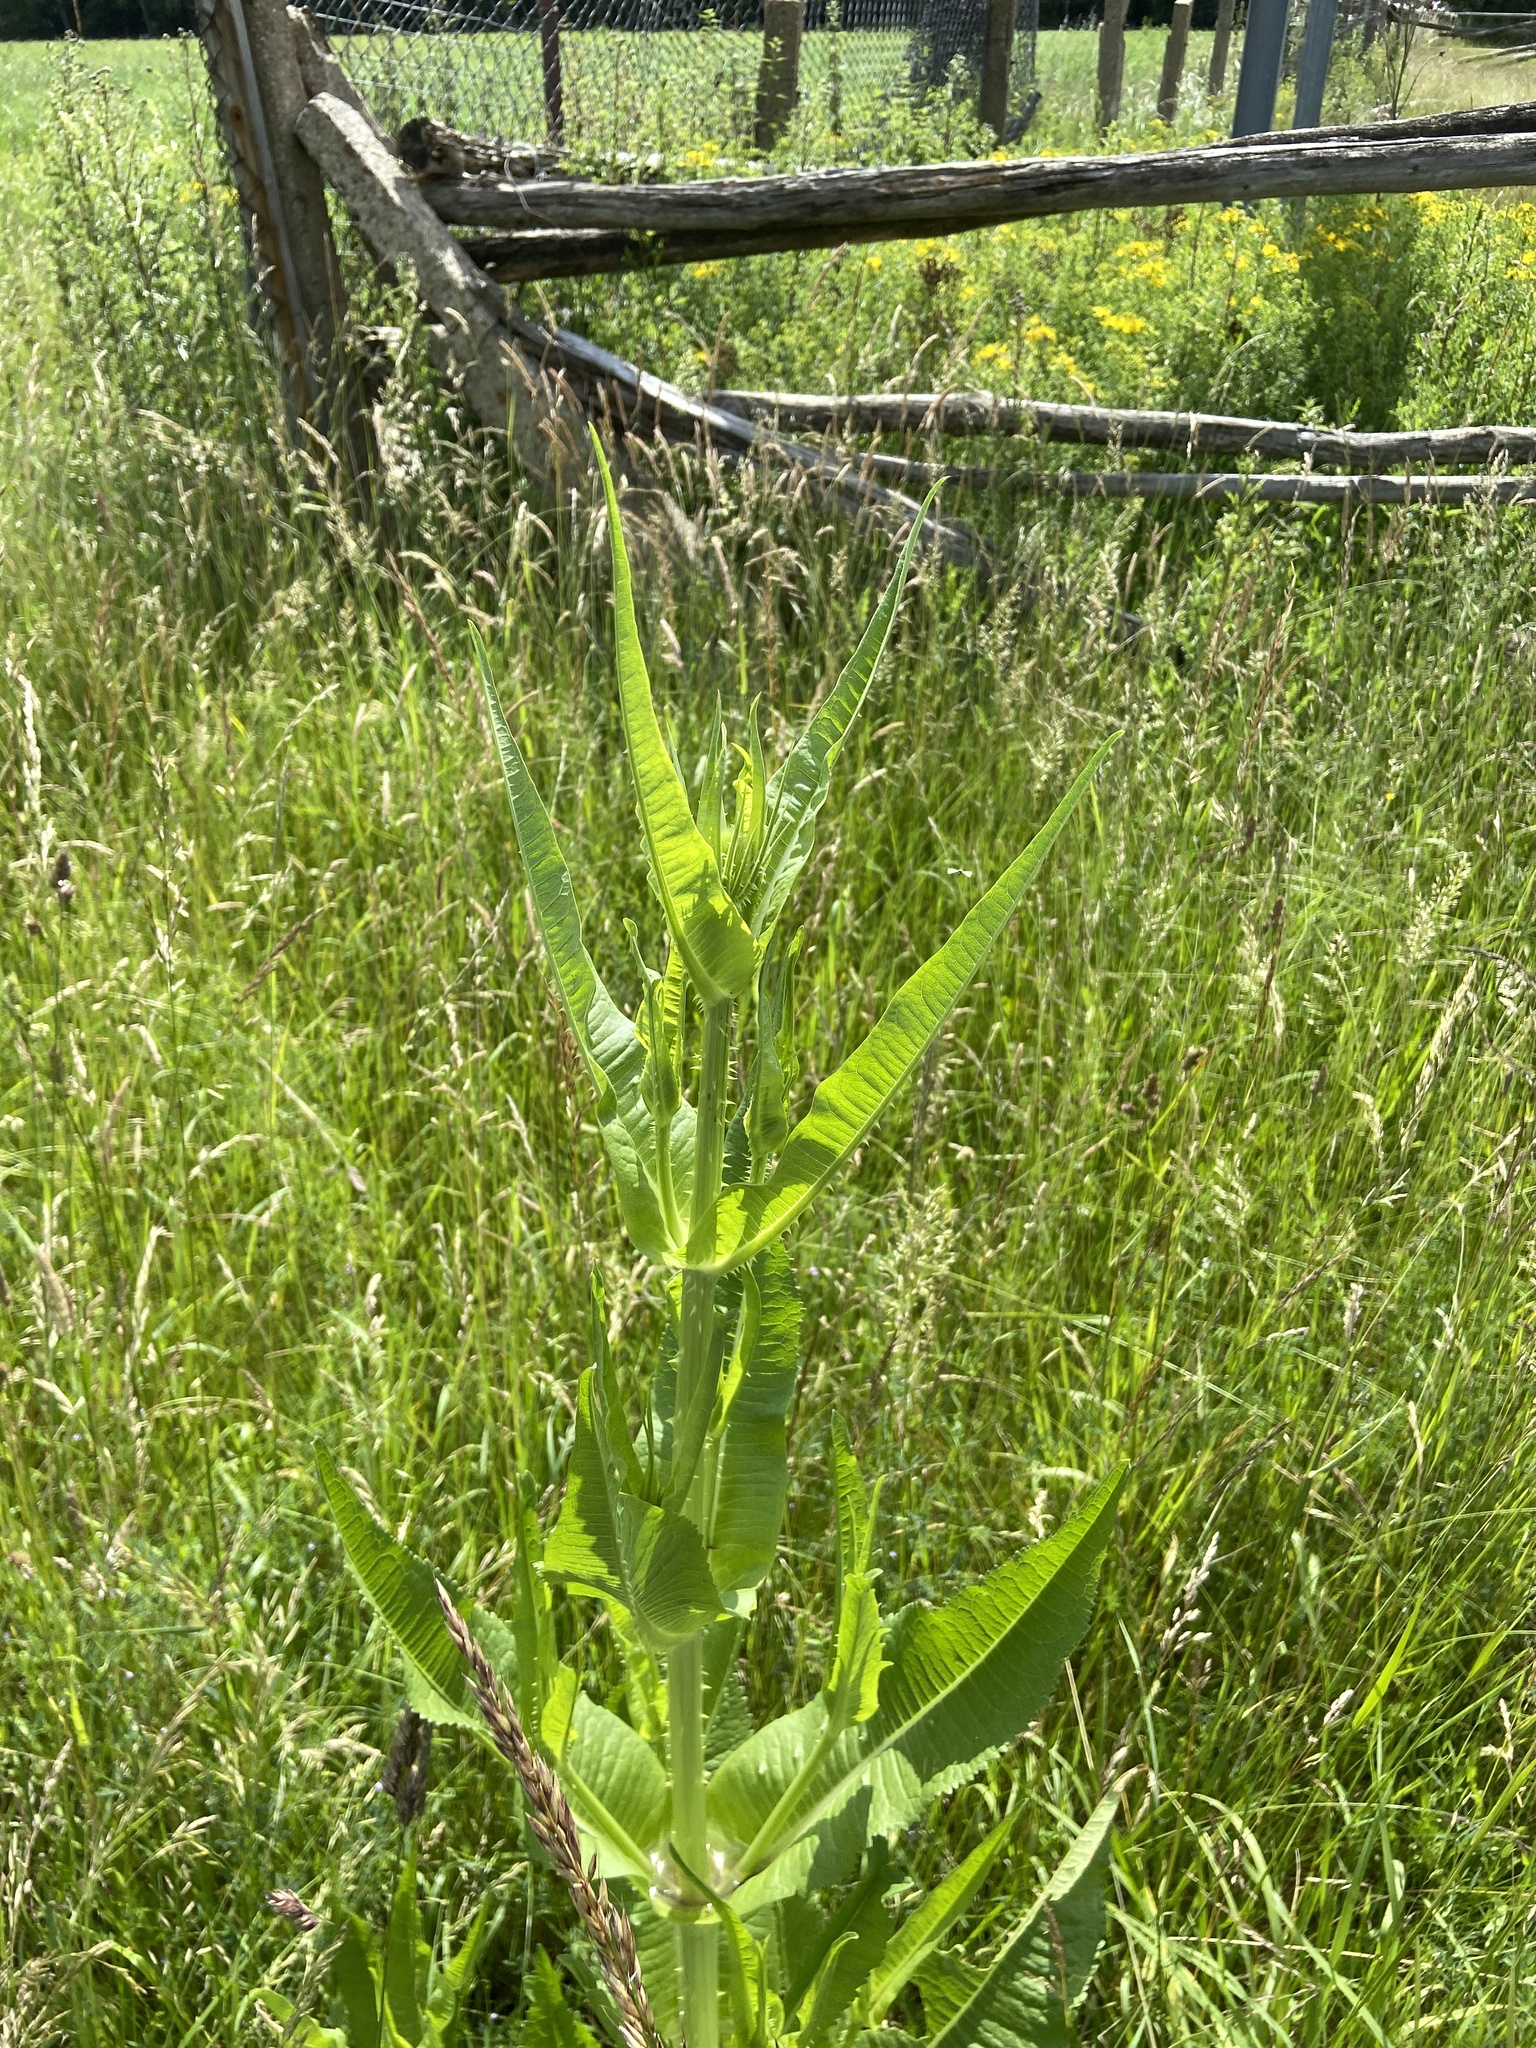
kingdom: Plantae
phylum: Tracheophyta
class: Magnoliopsida
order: Dipsacales
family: Caprifoliaceae
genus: Dipsacus
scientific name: Dipsacus fullonum
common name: Teasel
